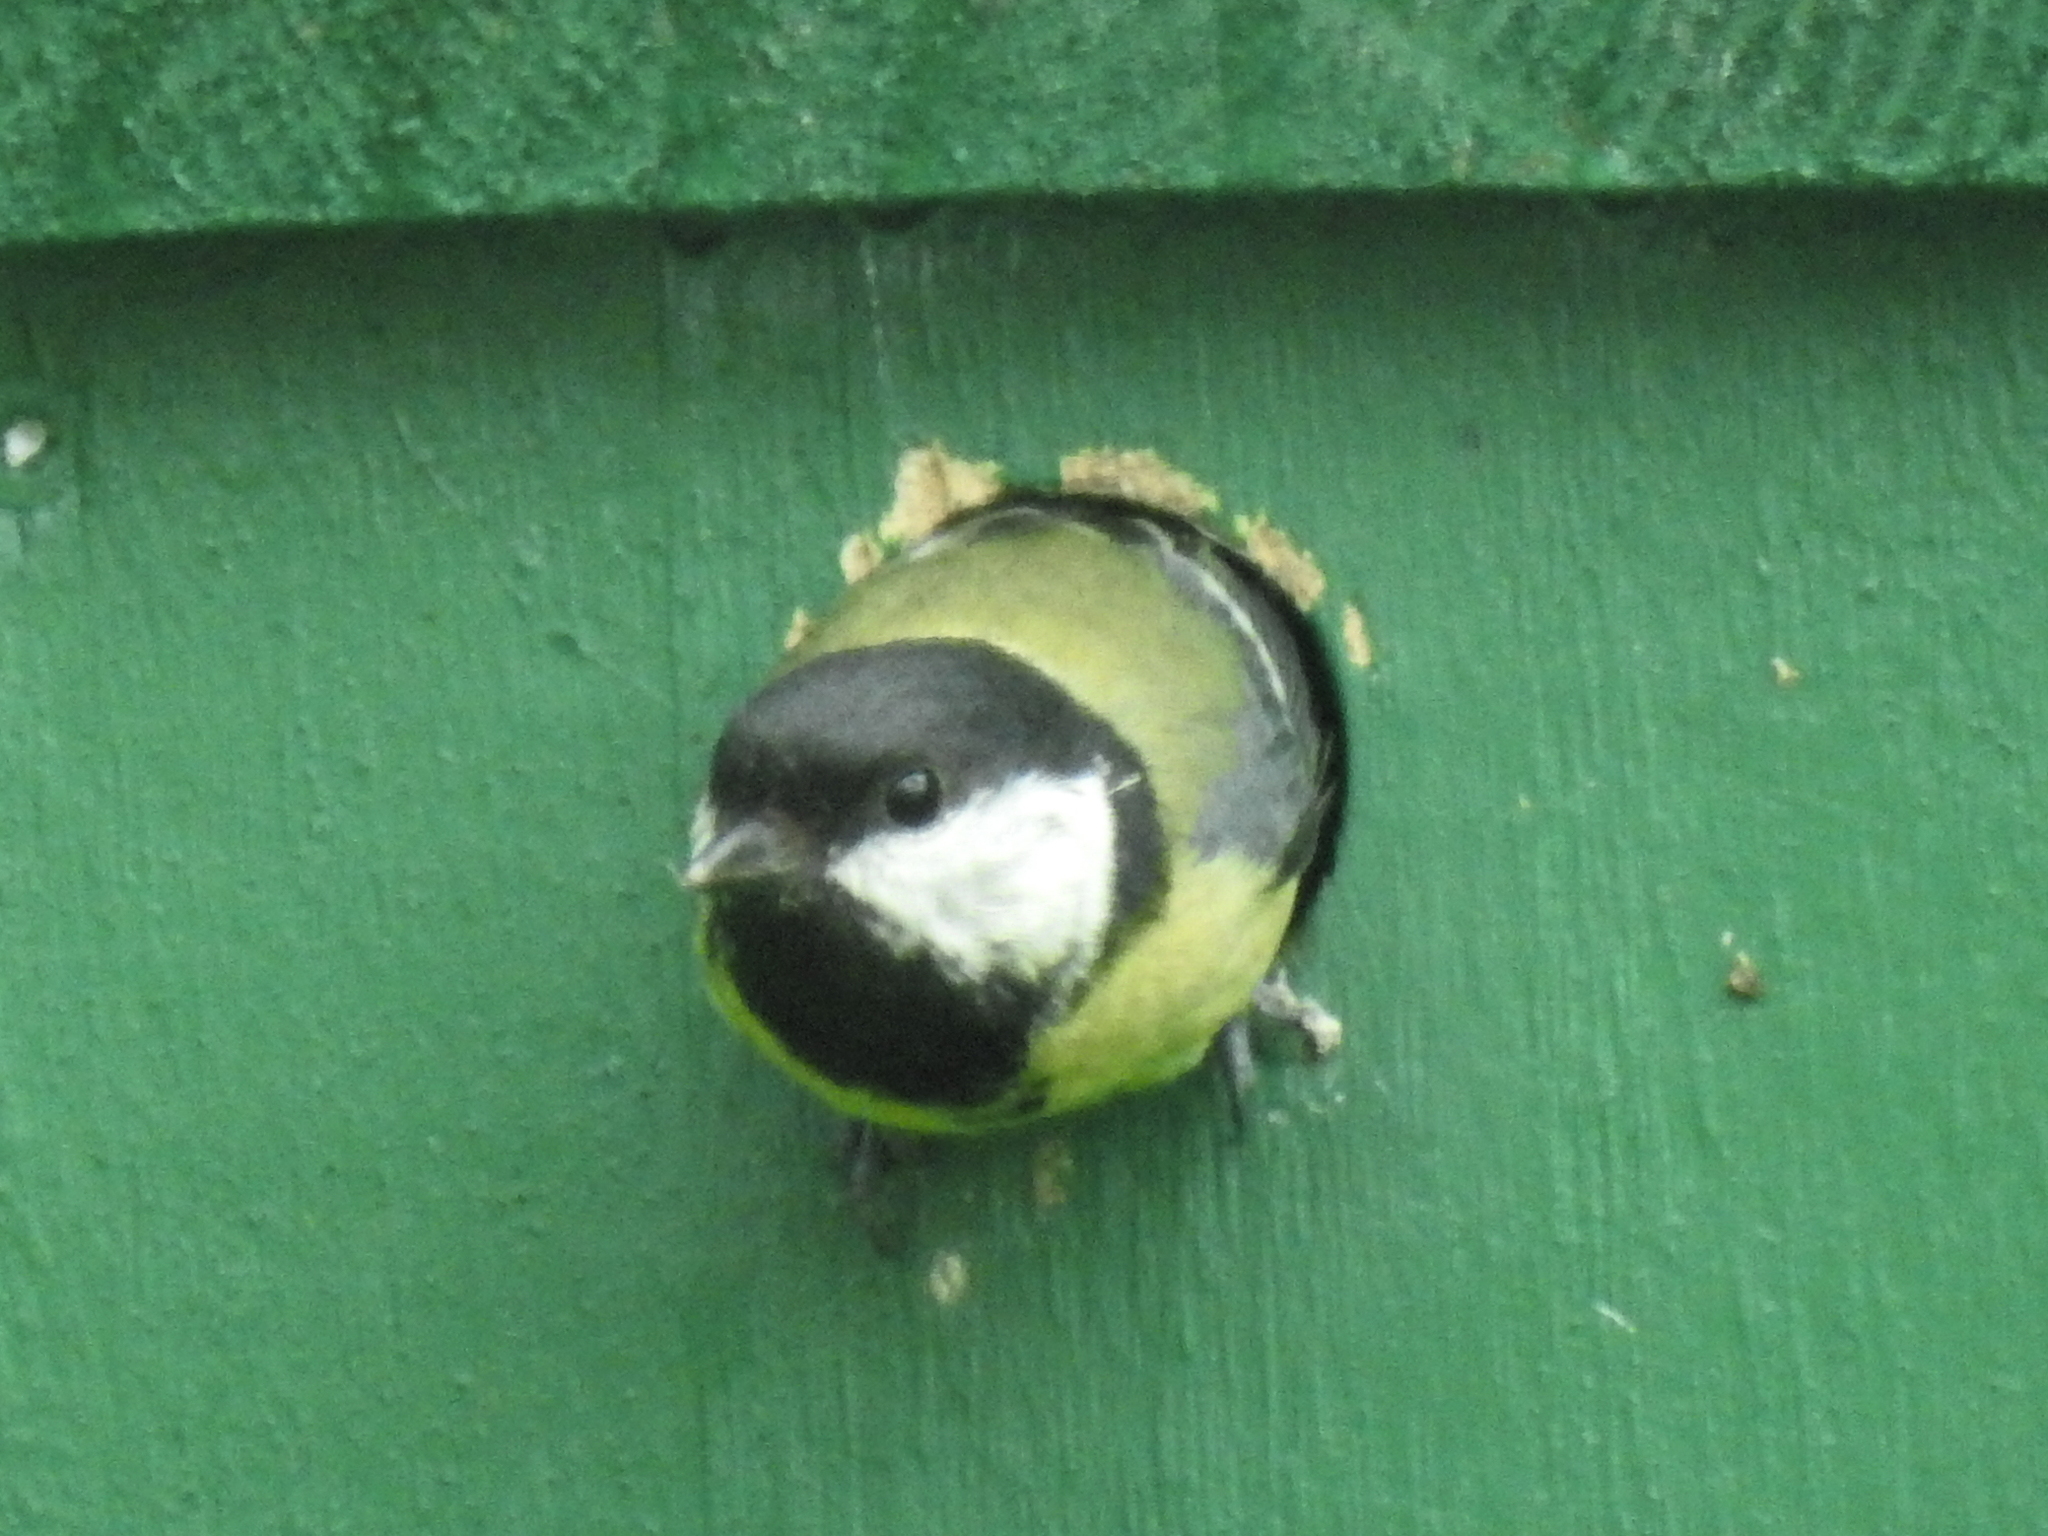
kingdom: Animalia
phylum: Chordata
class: Aves
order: Passeriformes
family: Paridae
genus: Parus
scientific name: Parus major
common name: Great tit
